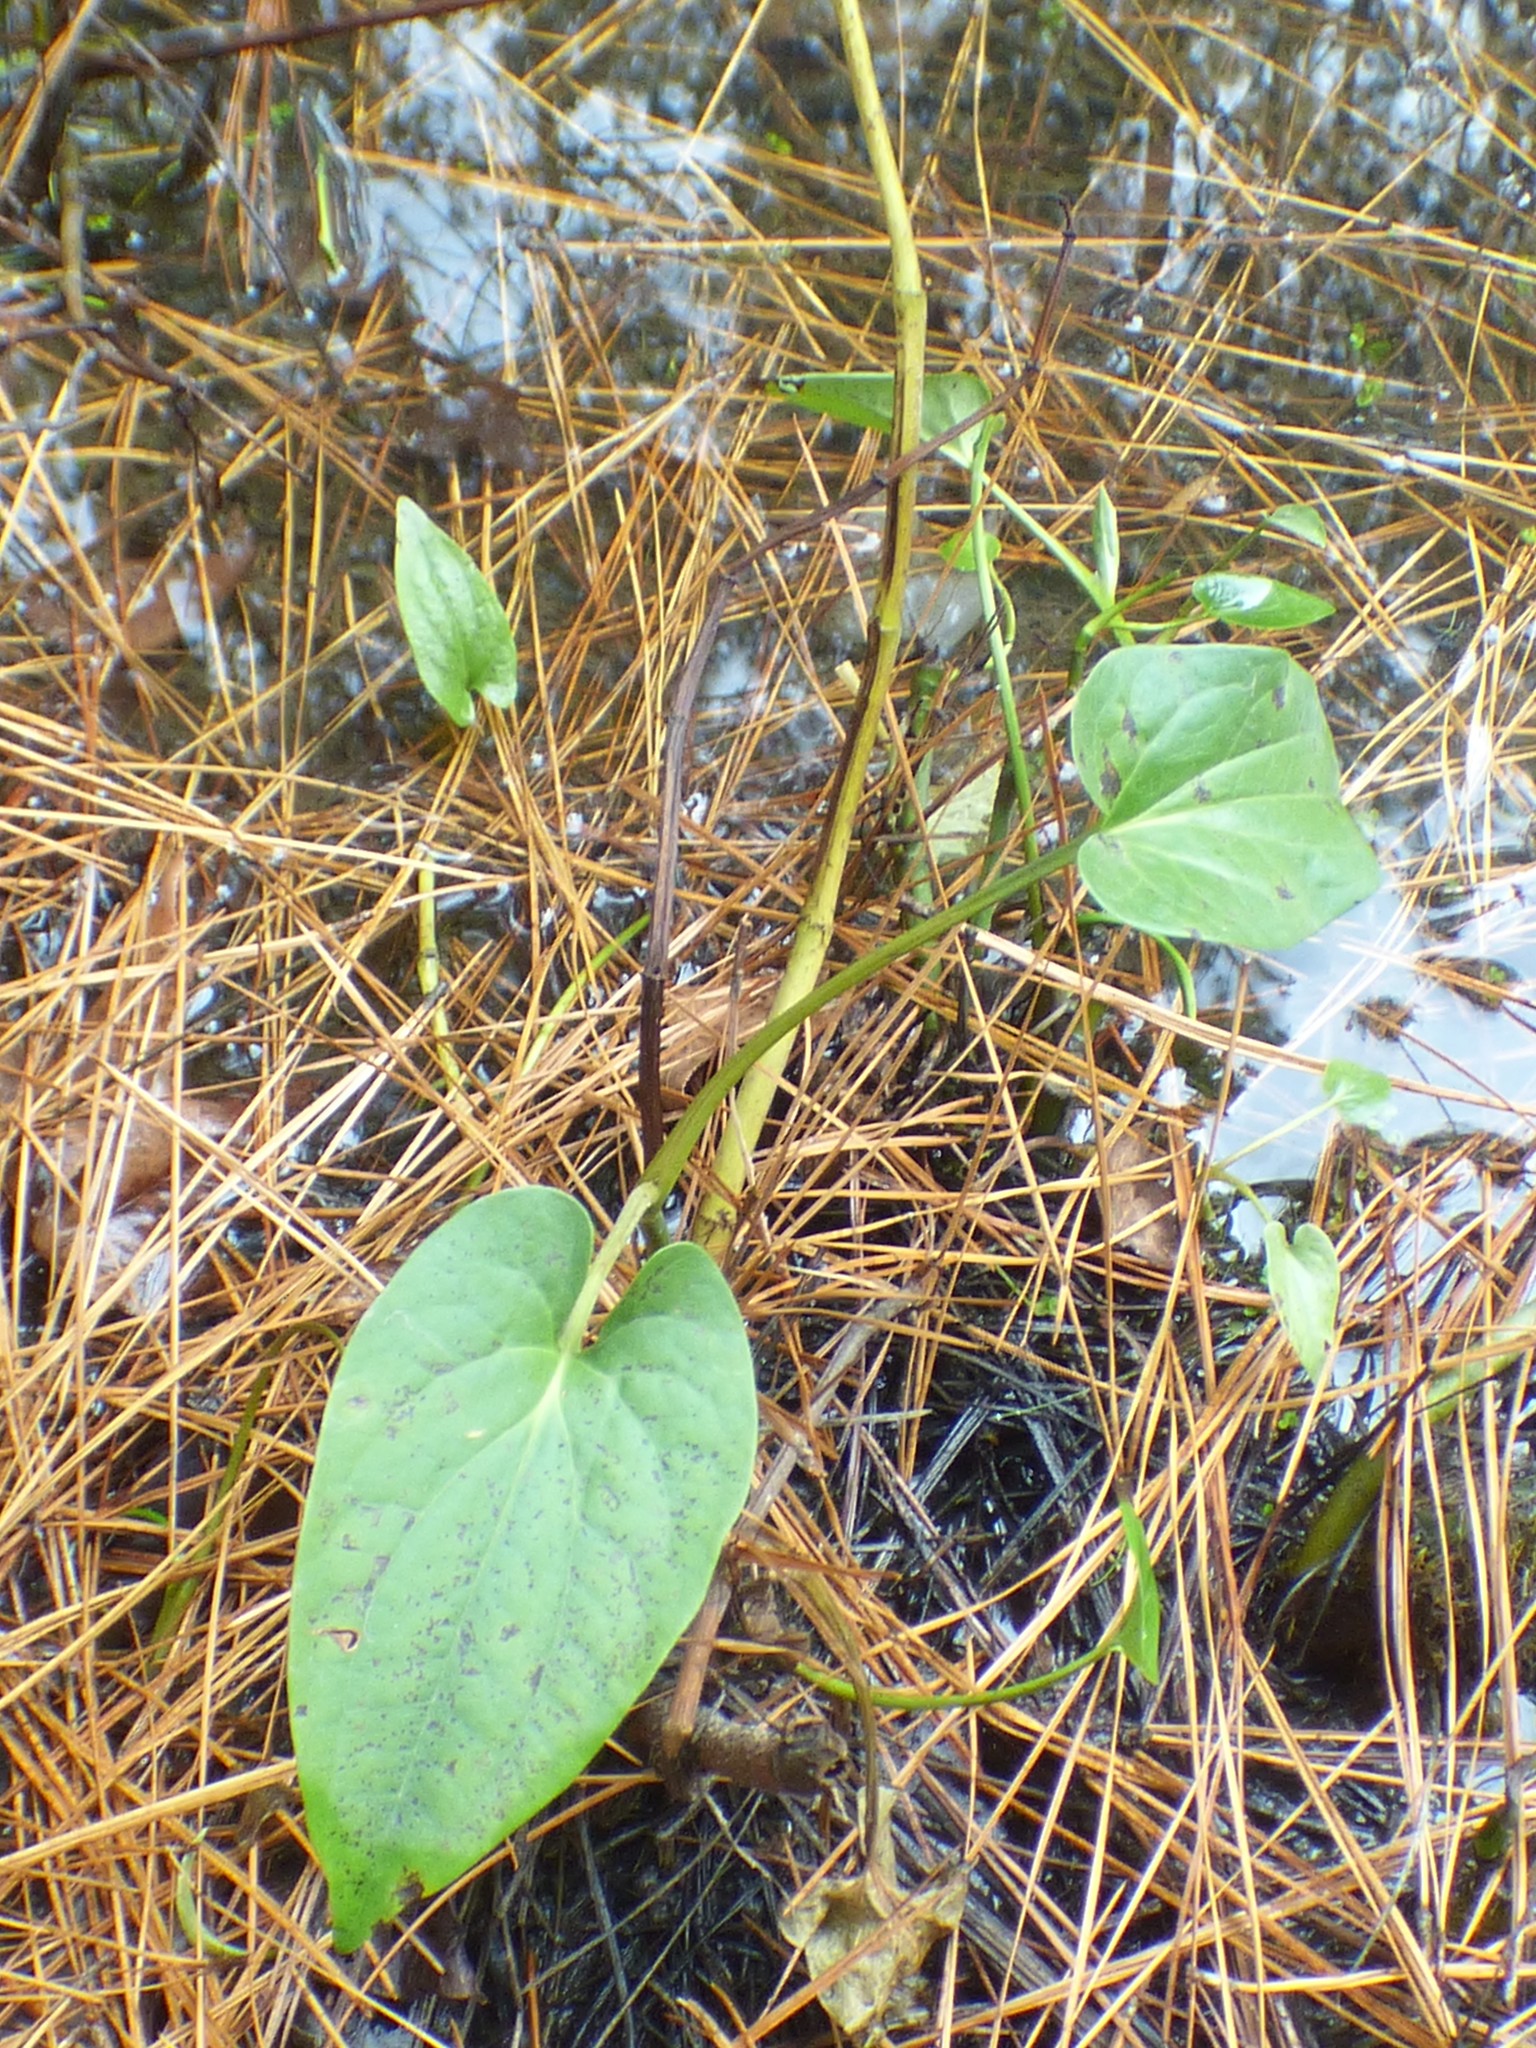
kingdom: Plantae
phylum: Tracheophyta
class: Magnoliopsida
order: Piperales
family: Saururaceae
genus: Saururus
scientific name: Saururus cernuus
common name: Lizard's-tail
